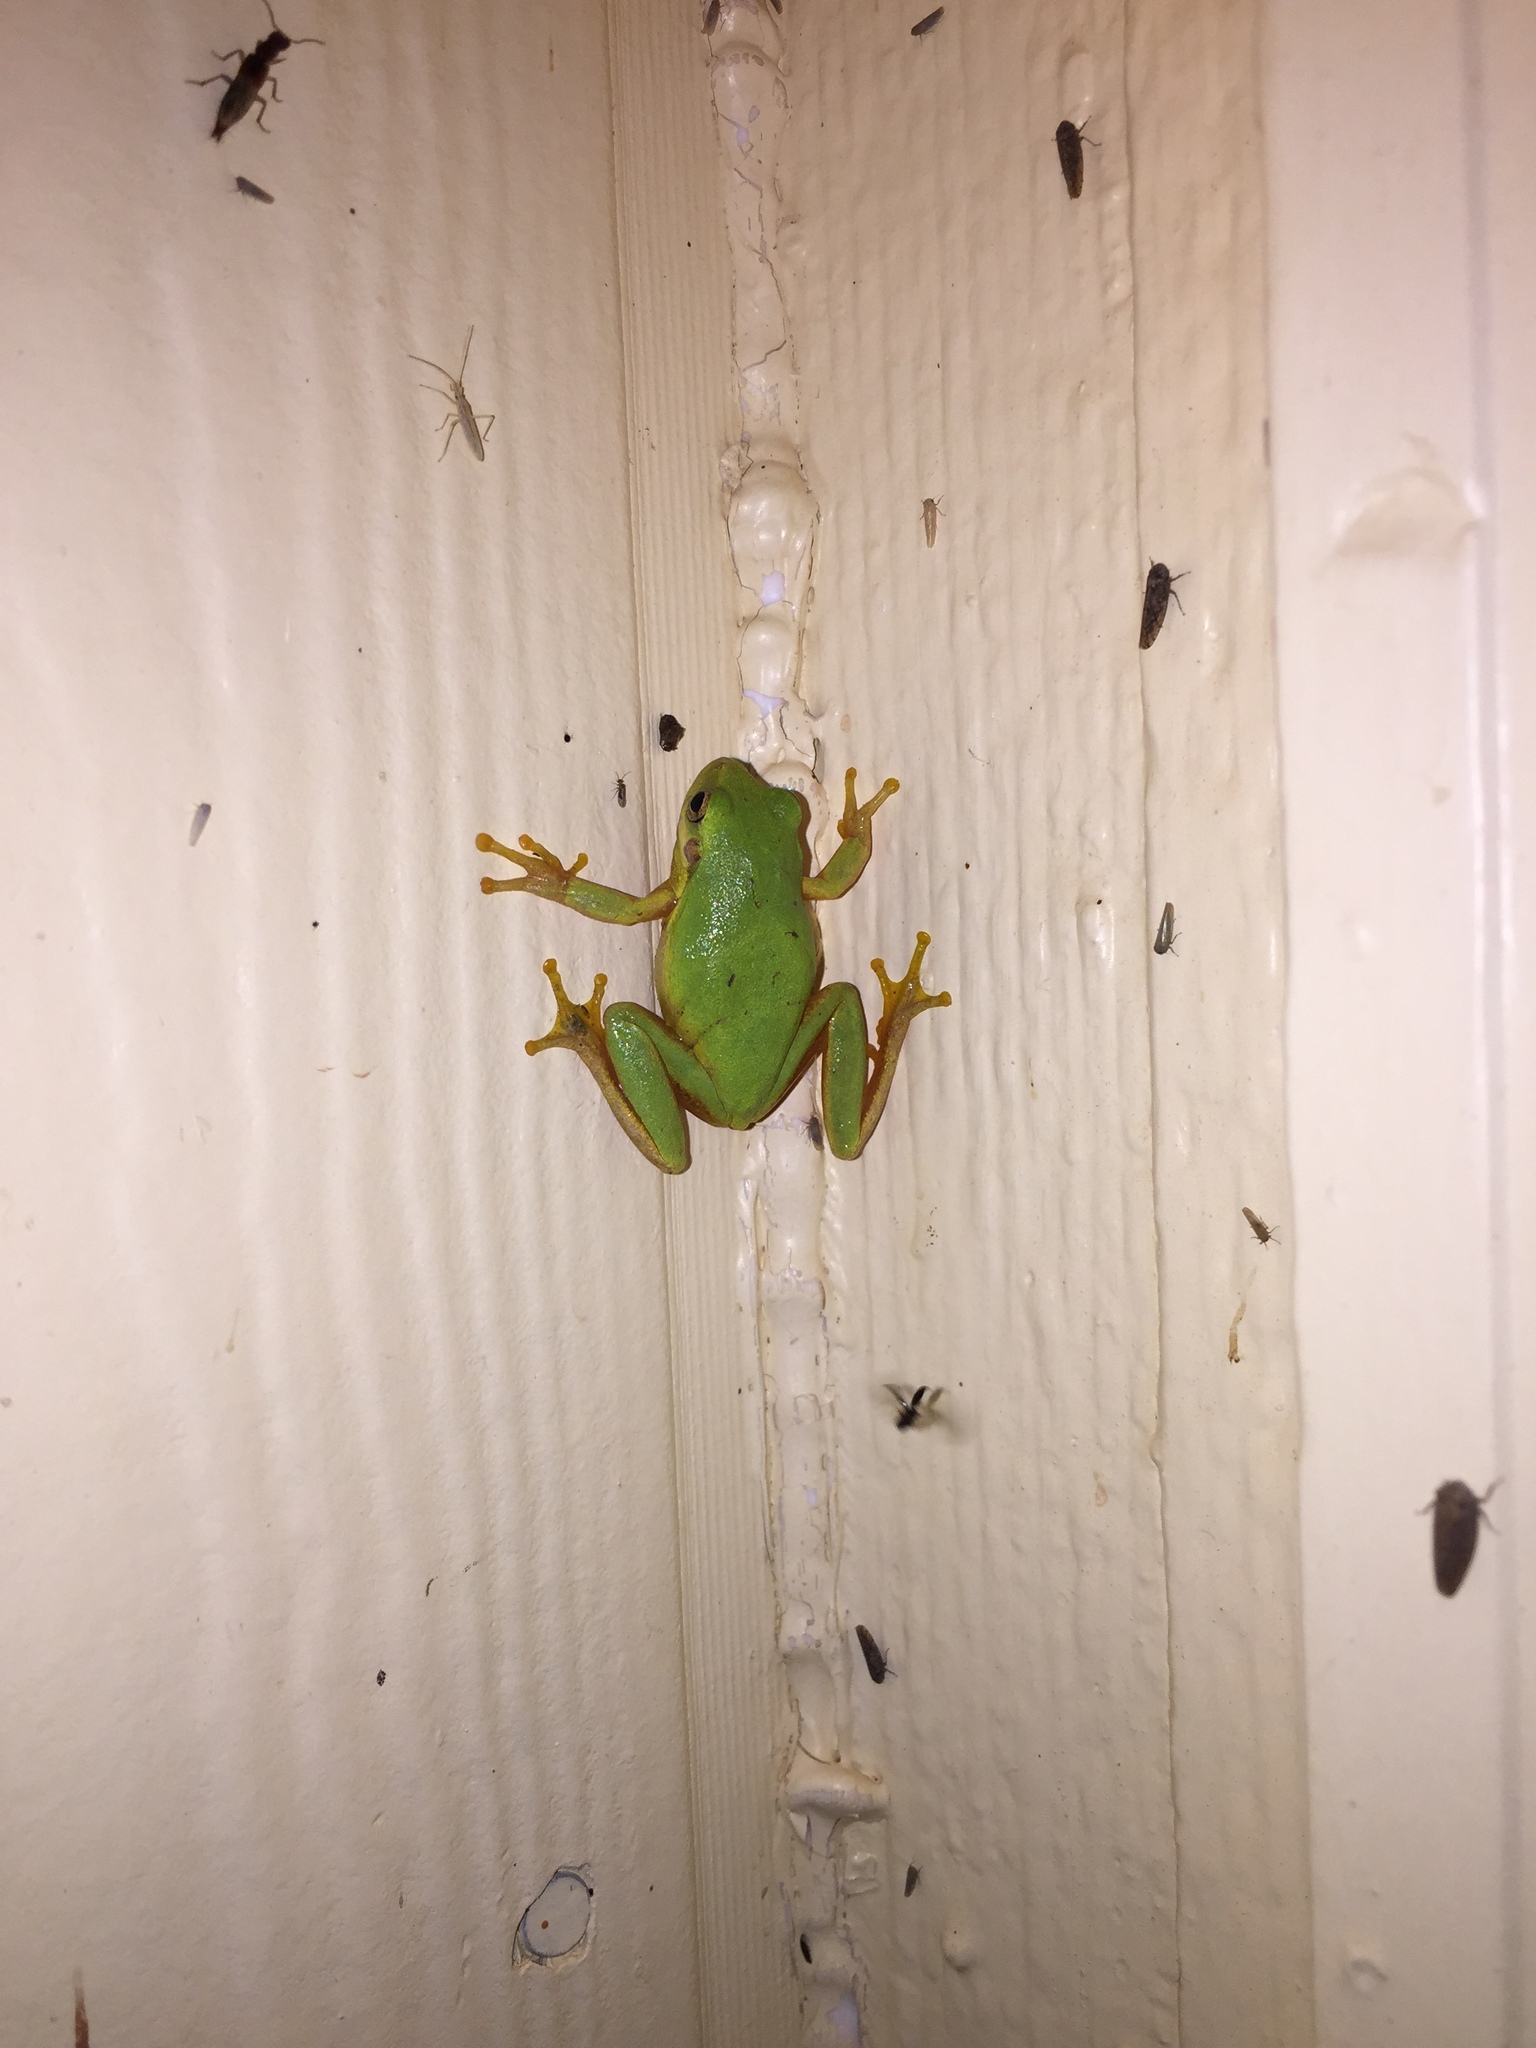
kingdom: Animalia
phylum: Chordata
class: Amphibia
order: Anura
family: Hylidae
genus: Hyla
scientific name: Hyla
